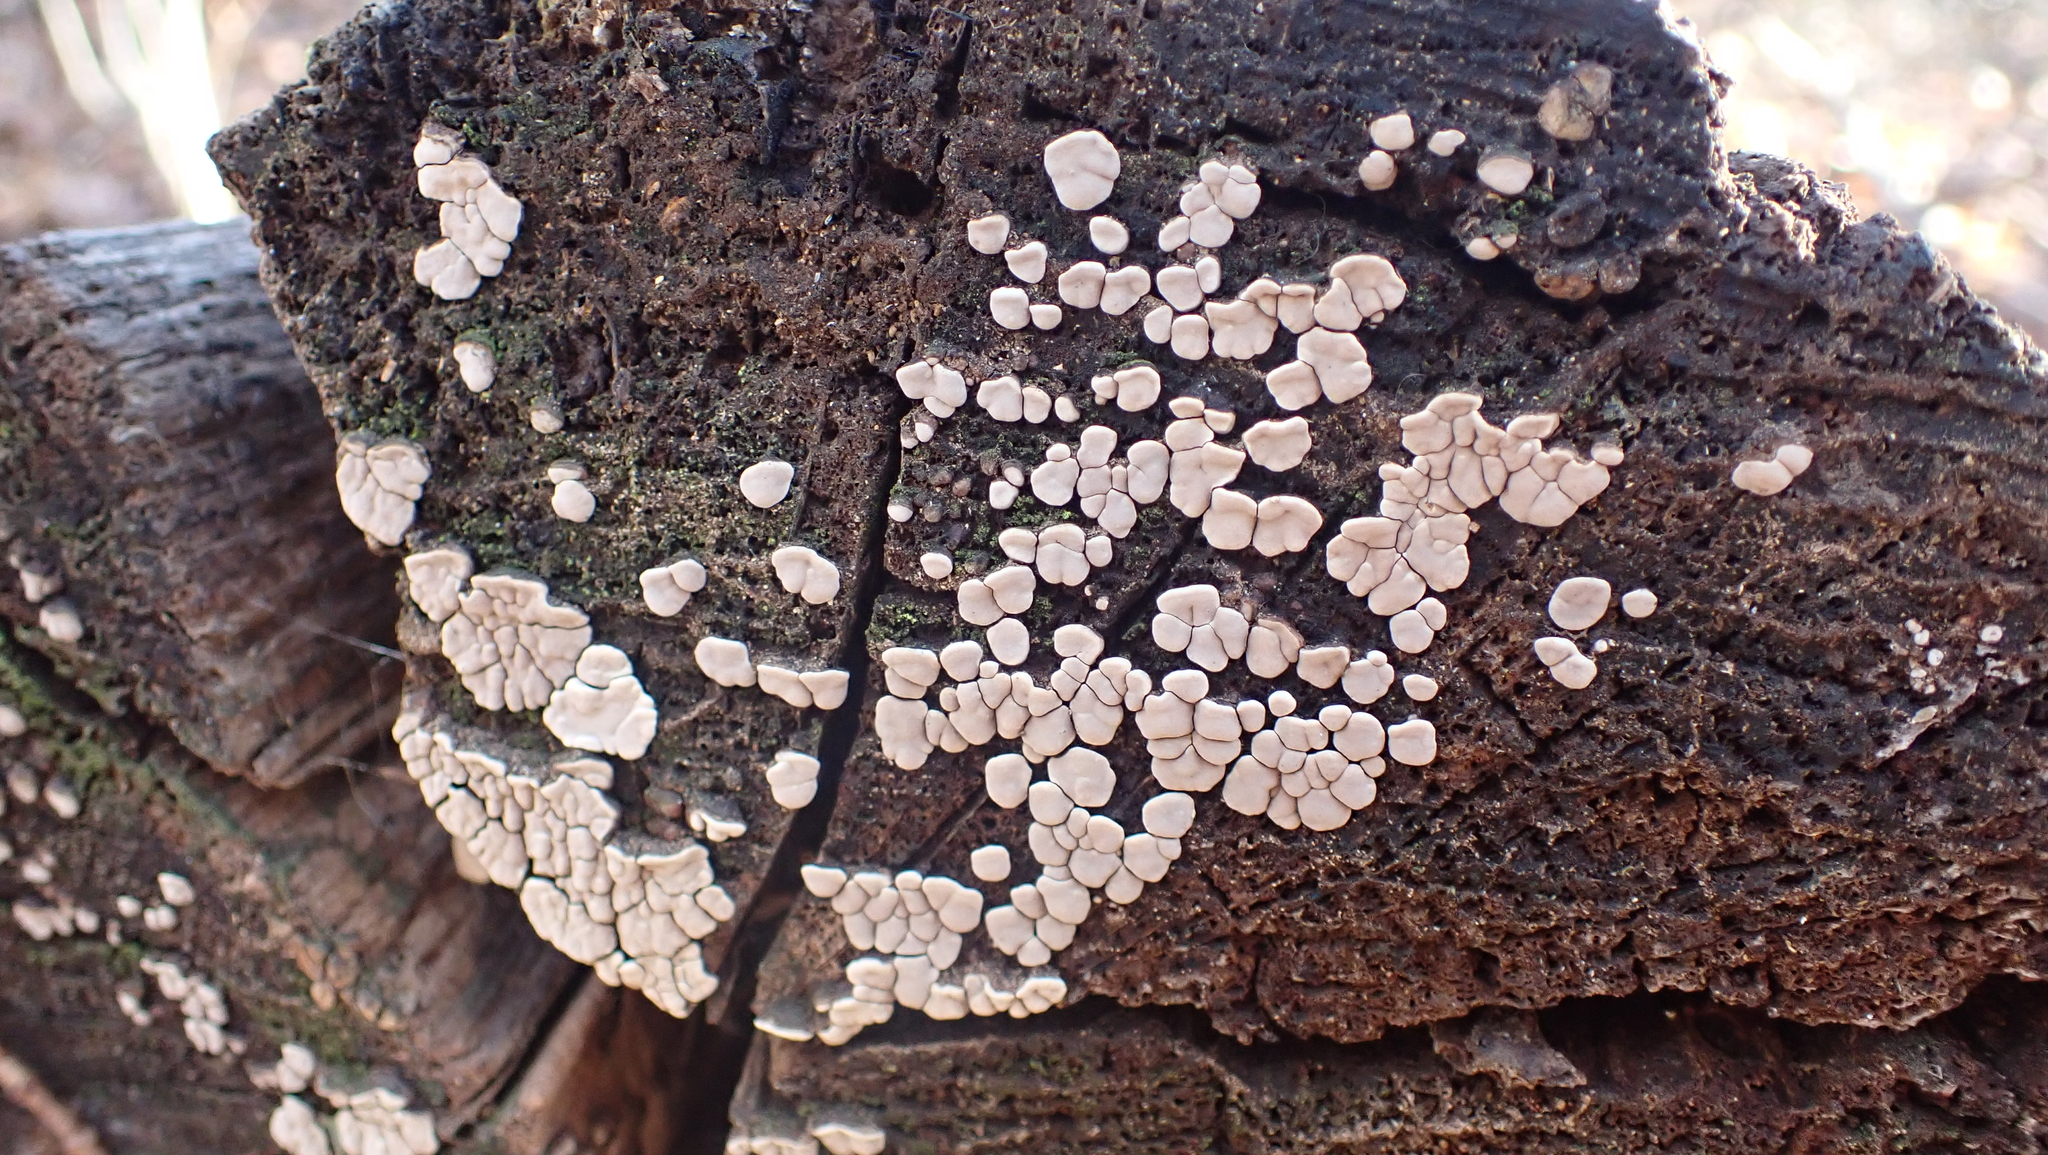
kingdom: Fungi
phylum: Basidiomycota
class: Agaricomycetes
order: Russulales
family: Stereaceae
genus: Xylobolus
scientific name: Xylobolus frustulatus
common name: Ceramic parchment
